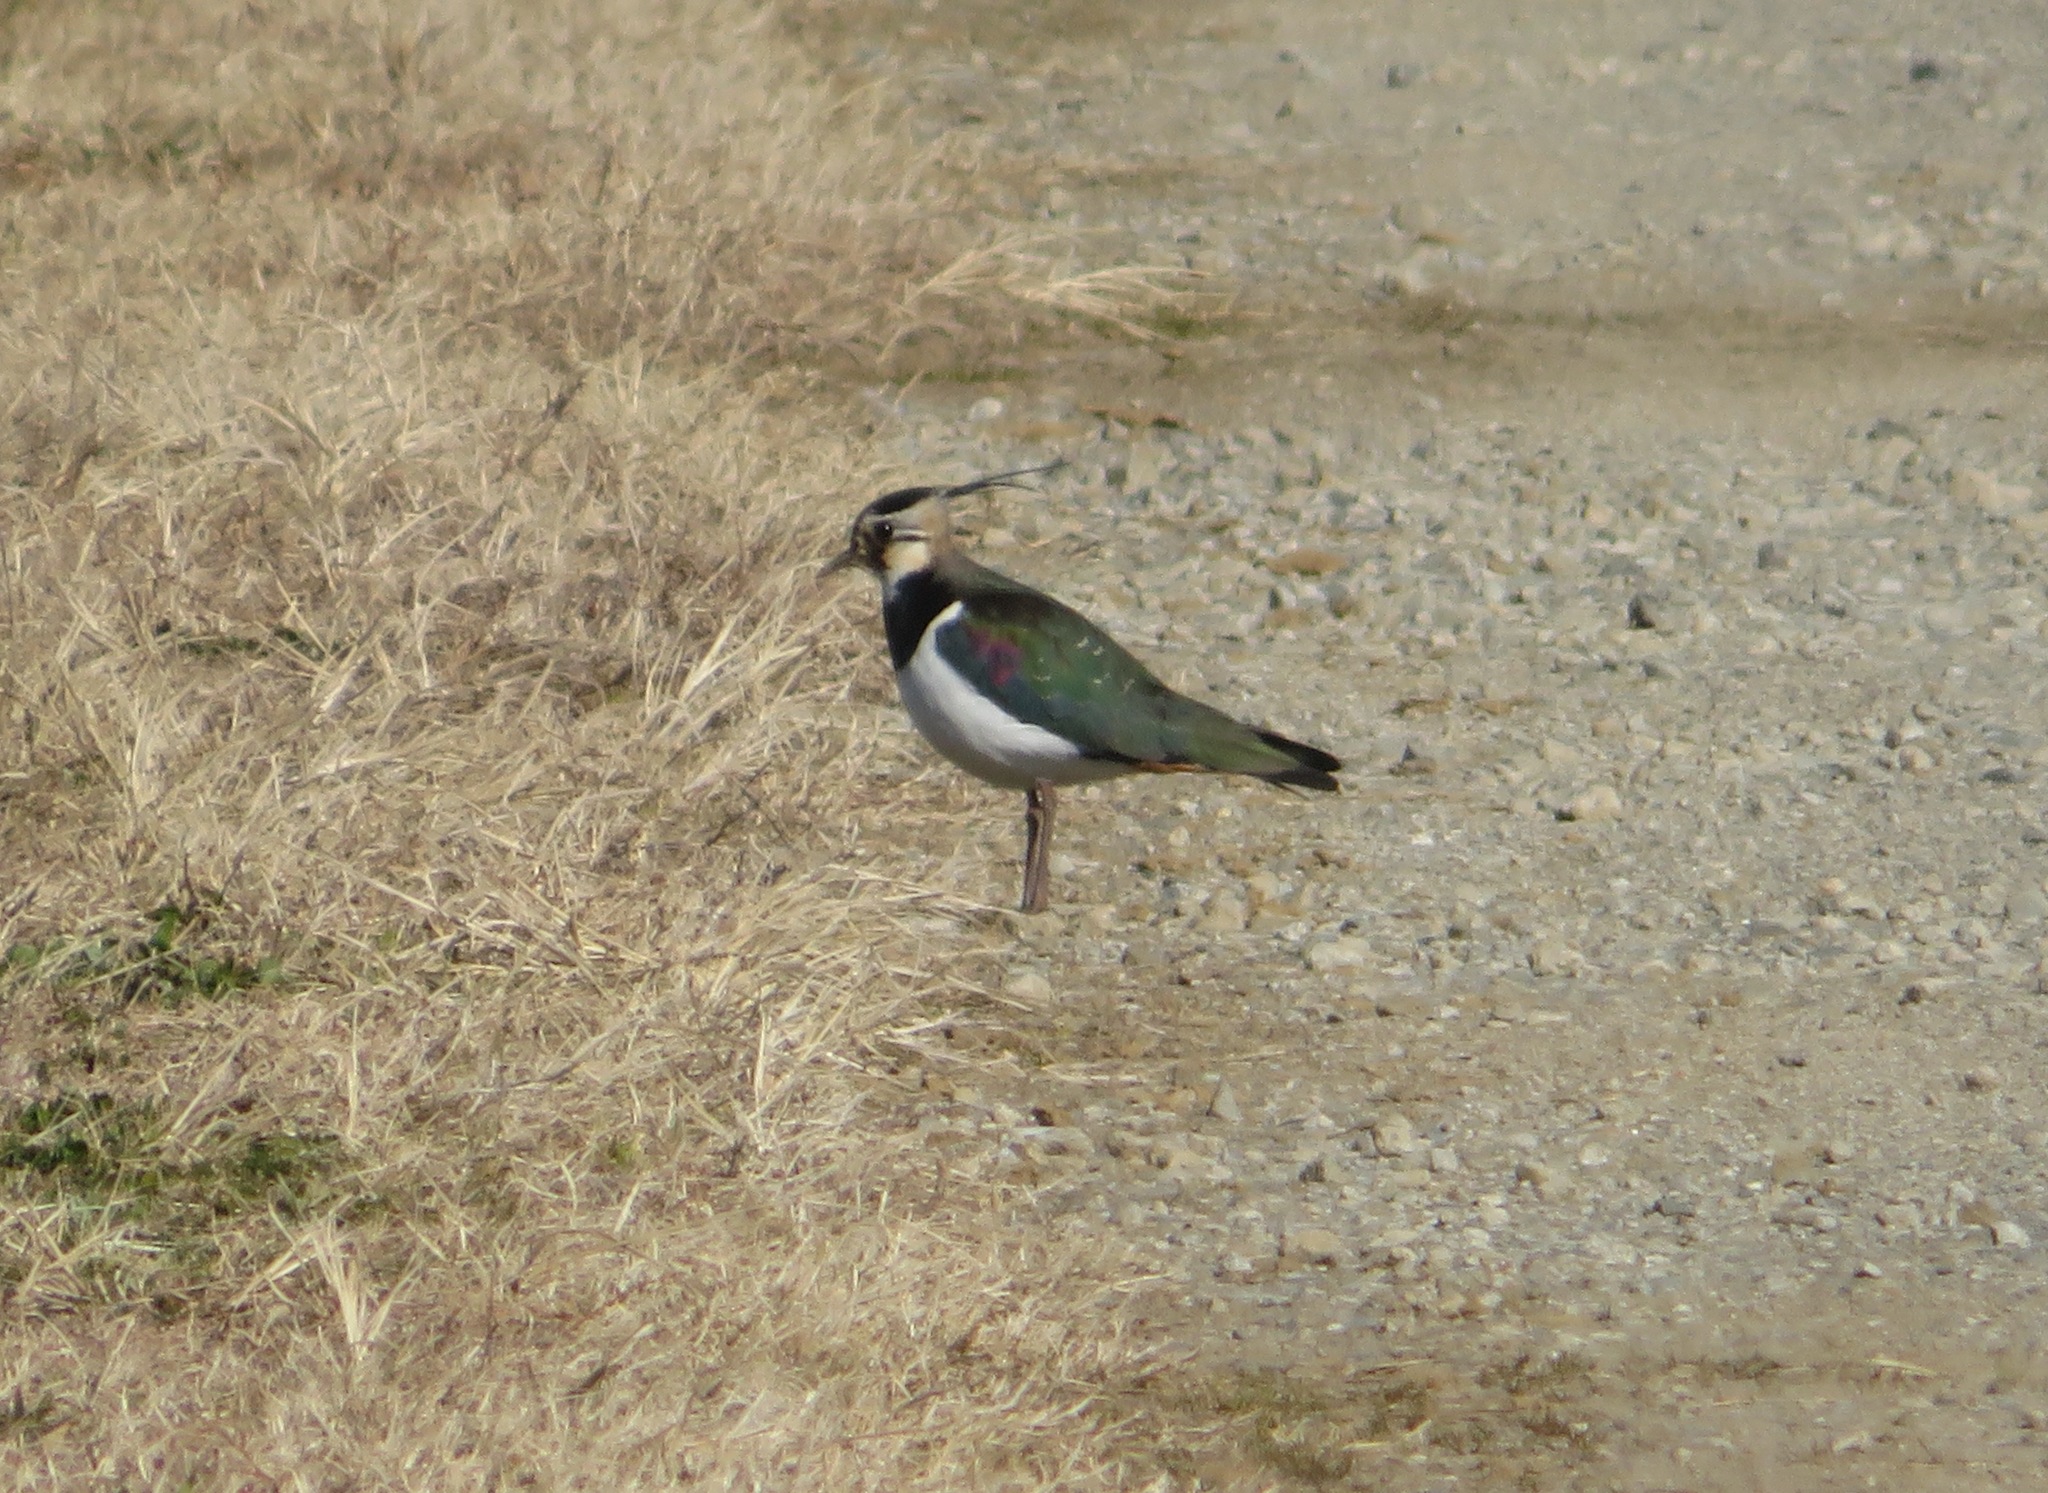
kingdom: Animalia
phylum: Chordata
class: Aves
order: Charadriiformes
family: Charadriidae
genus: Vanellus
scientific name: Vanellus vanellus
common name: Northern lapwing
